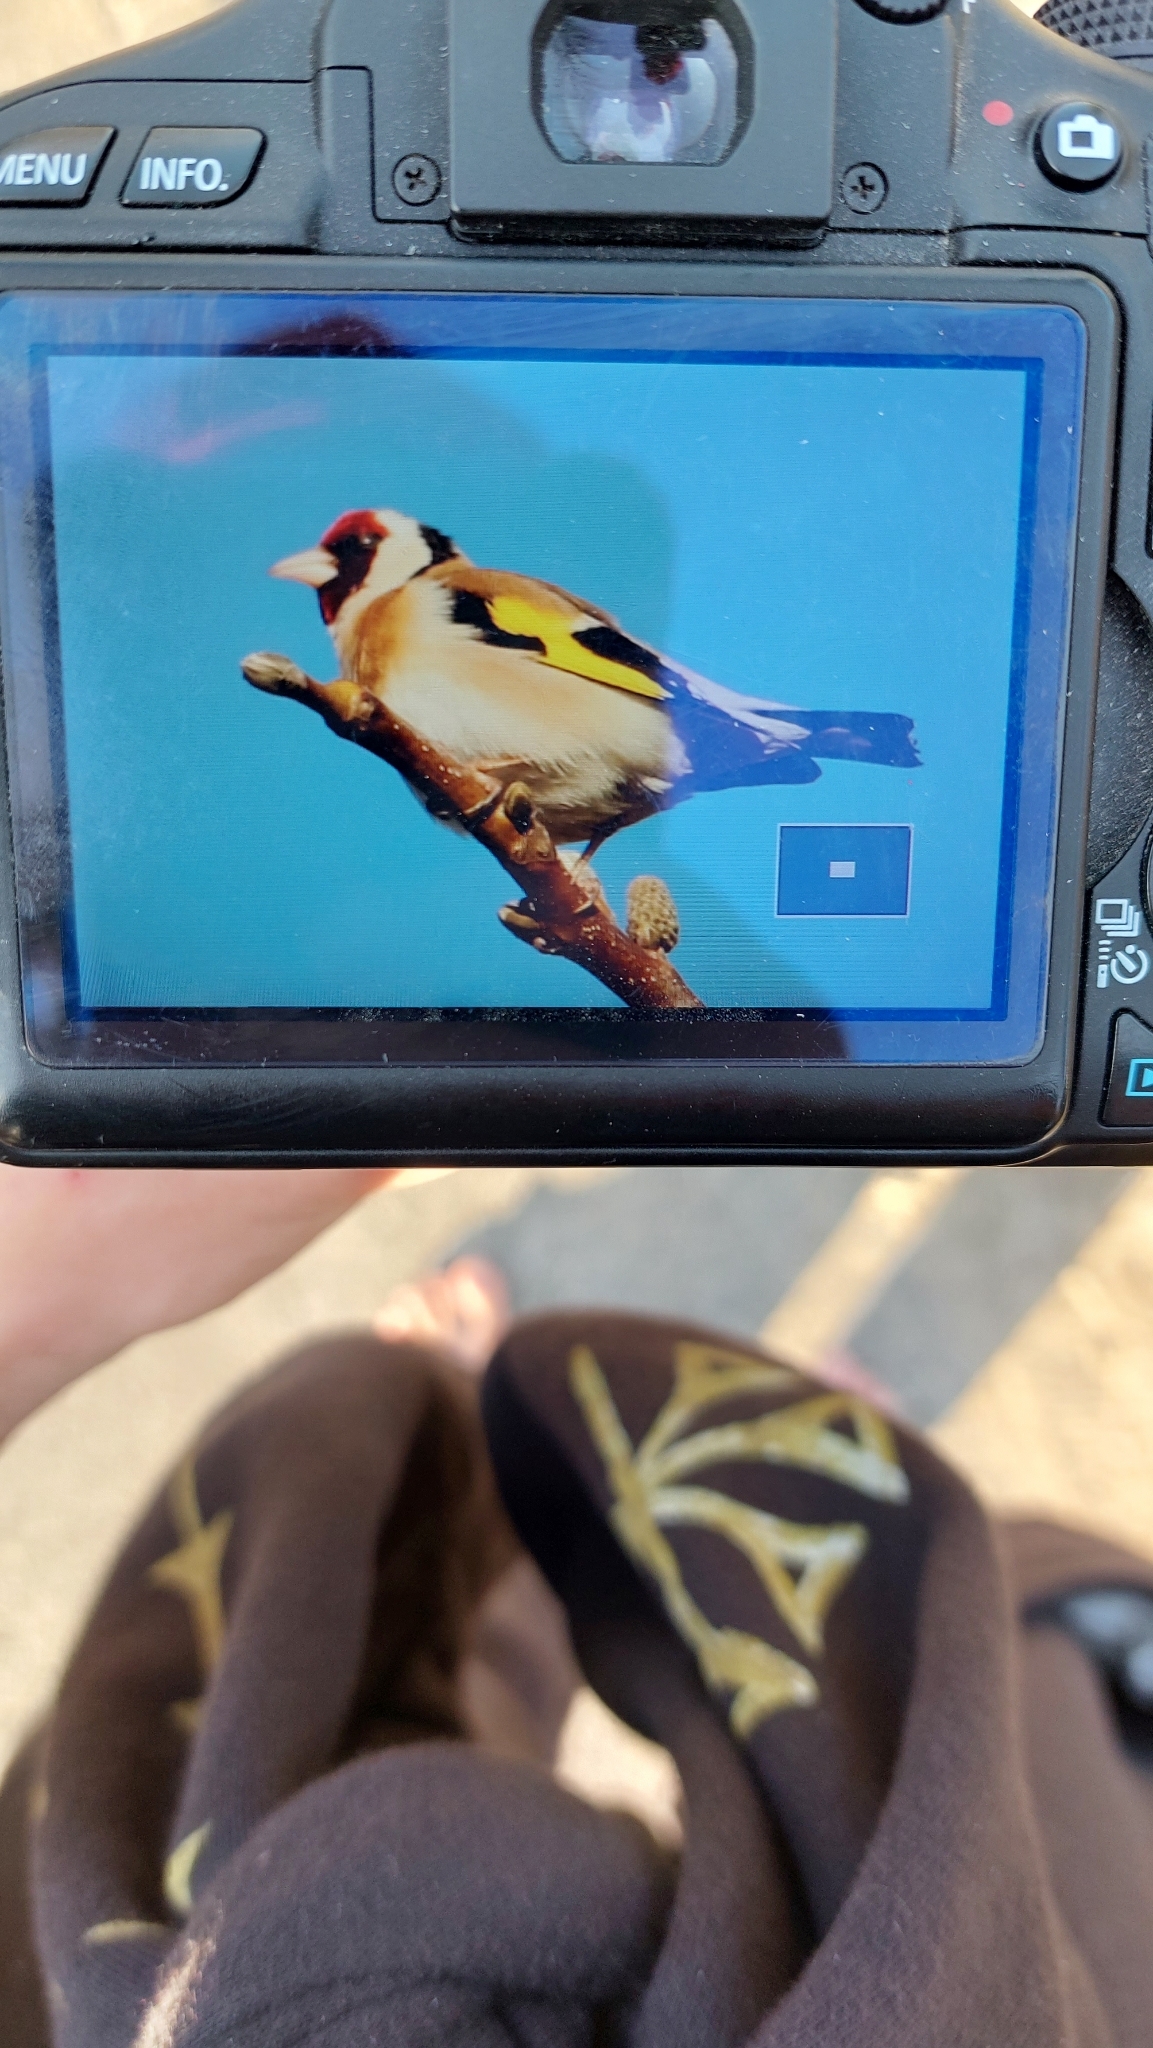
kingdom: Animalia
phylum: Chordata
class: Aves
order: Passeriformes
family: Fringillidae
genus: Carduelis
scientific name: Carduelis carduelis
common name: European goldfinch
